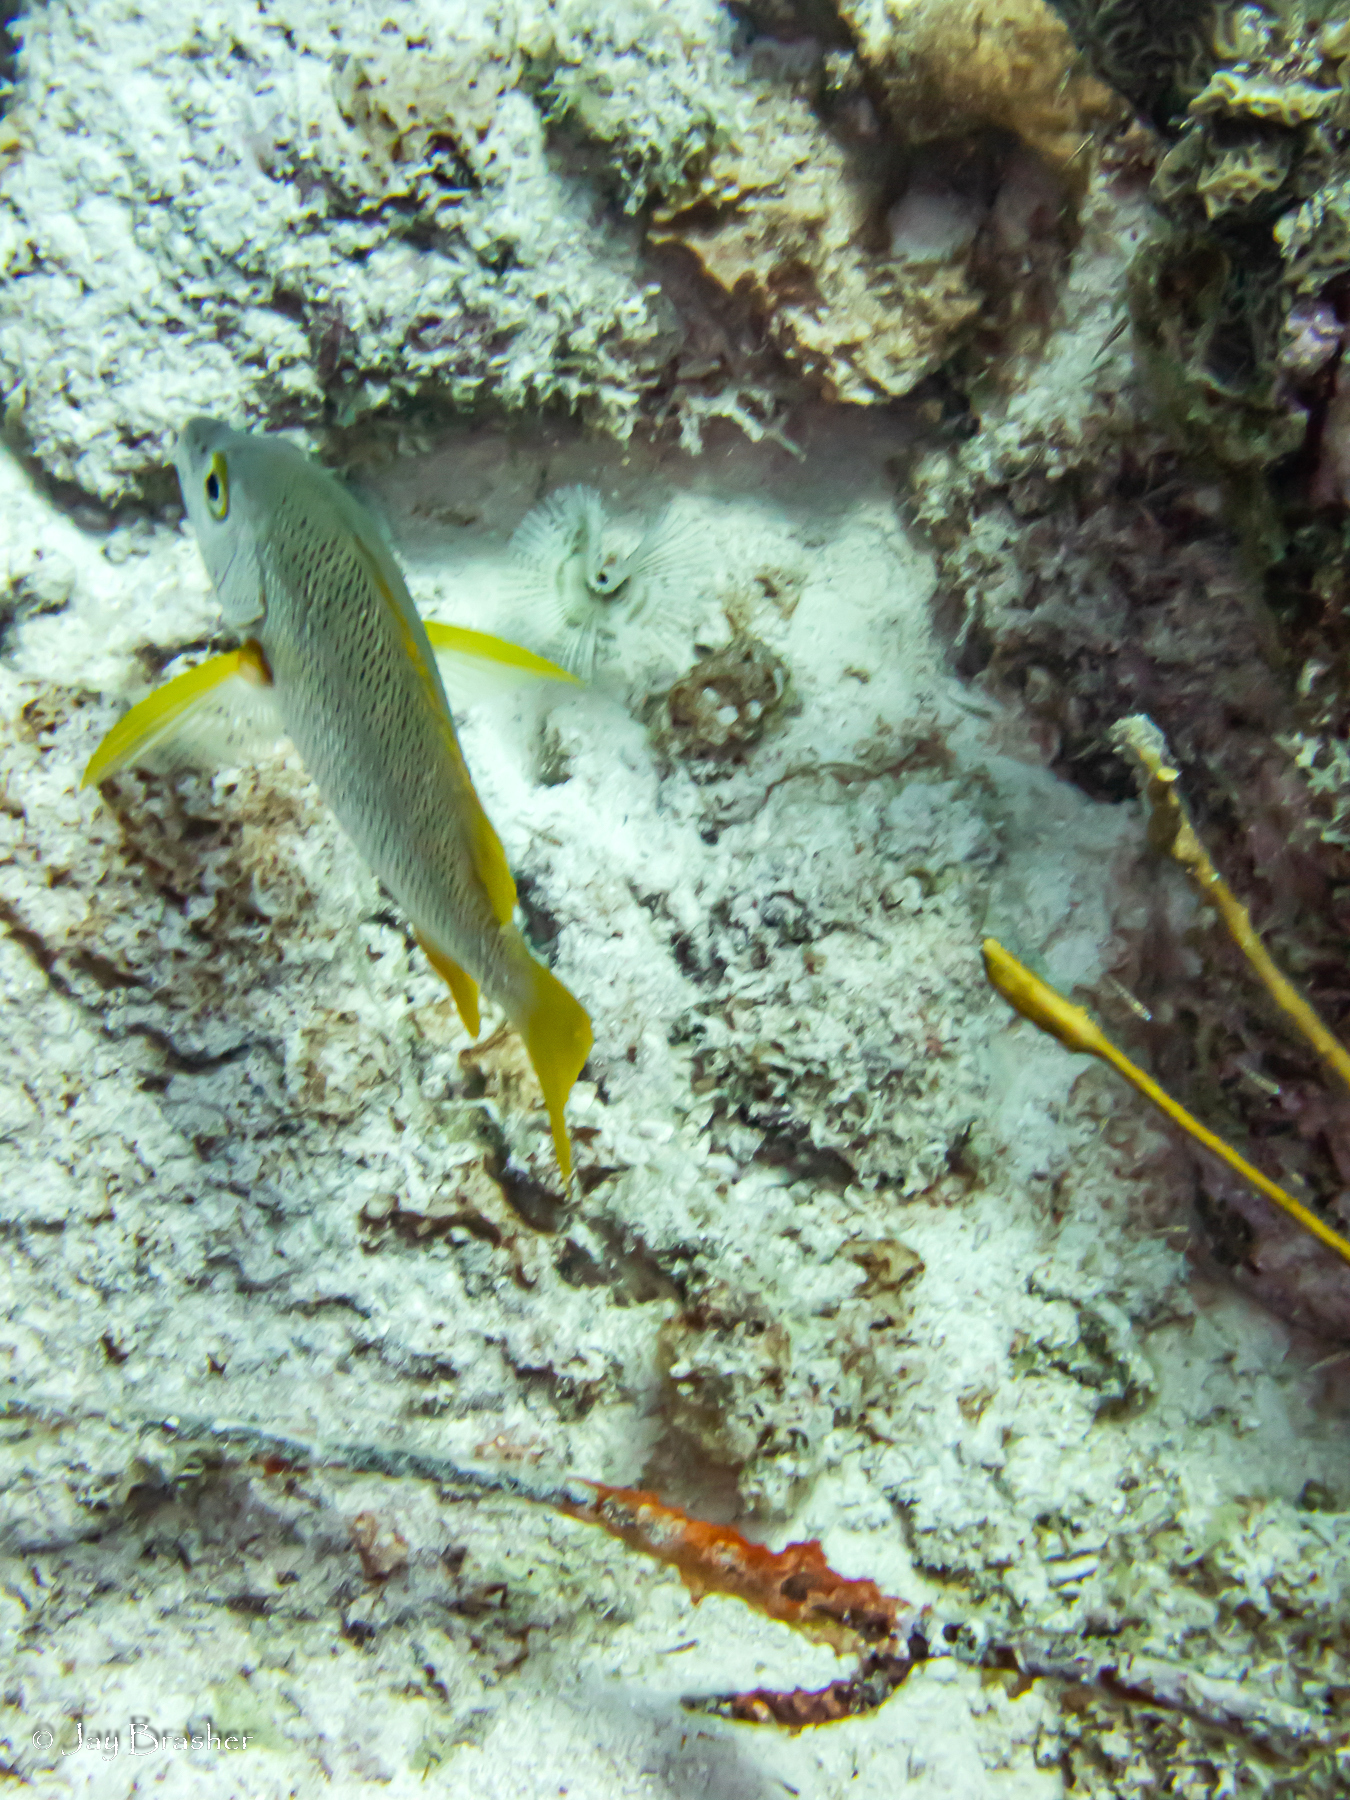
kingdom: Animalia
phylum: Chordata
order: Perciformes
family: Lutjanidae
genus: Lutjanus
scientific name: Lutjanus apodus
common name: Schoolmaster
